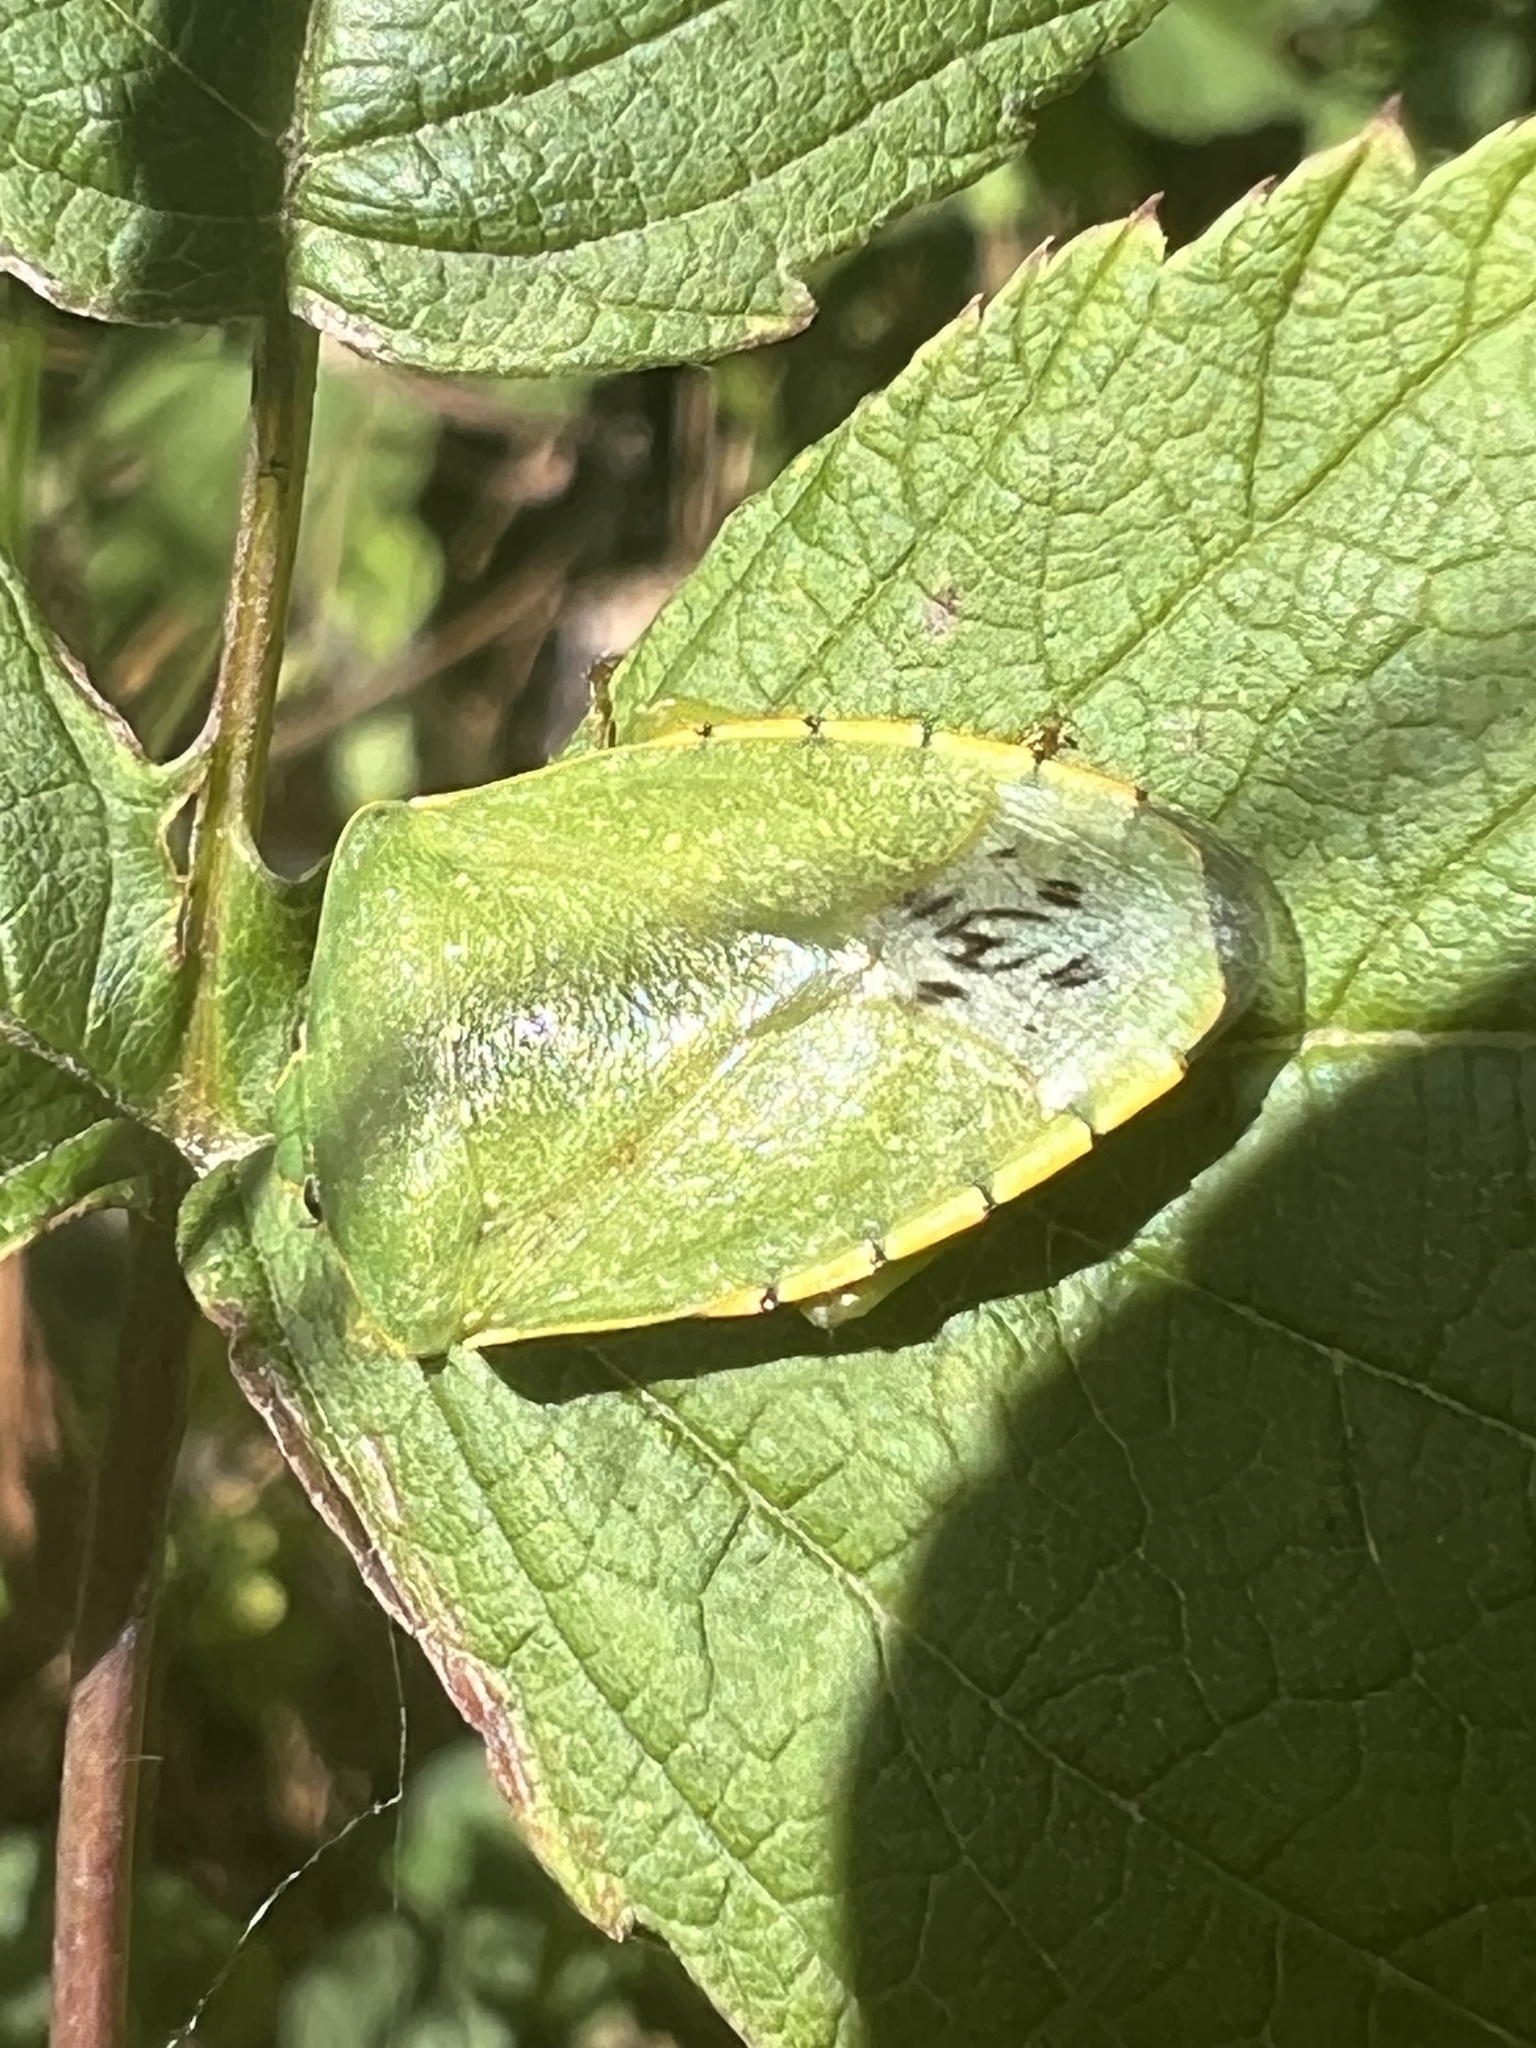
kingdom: Animalia
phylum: Arthropoda
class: Insecta
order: Hemiptera
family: Pentatomidae
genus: Chinavia
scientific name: Chinavia hilaris
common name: Green stink bug
